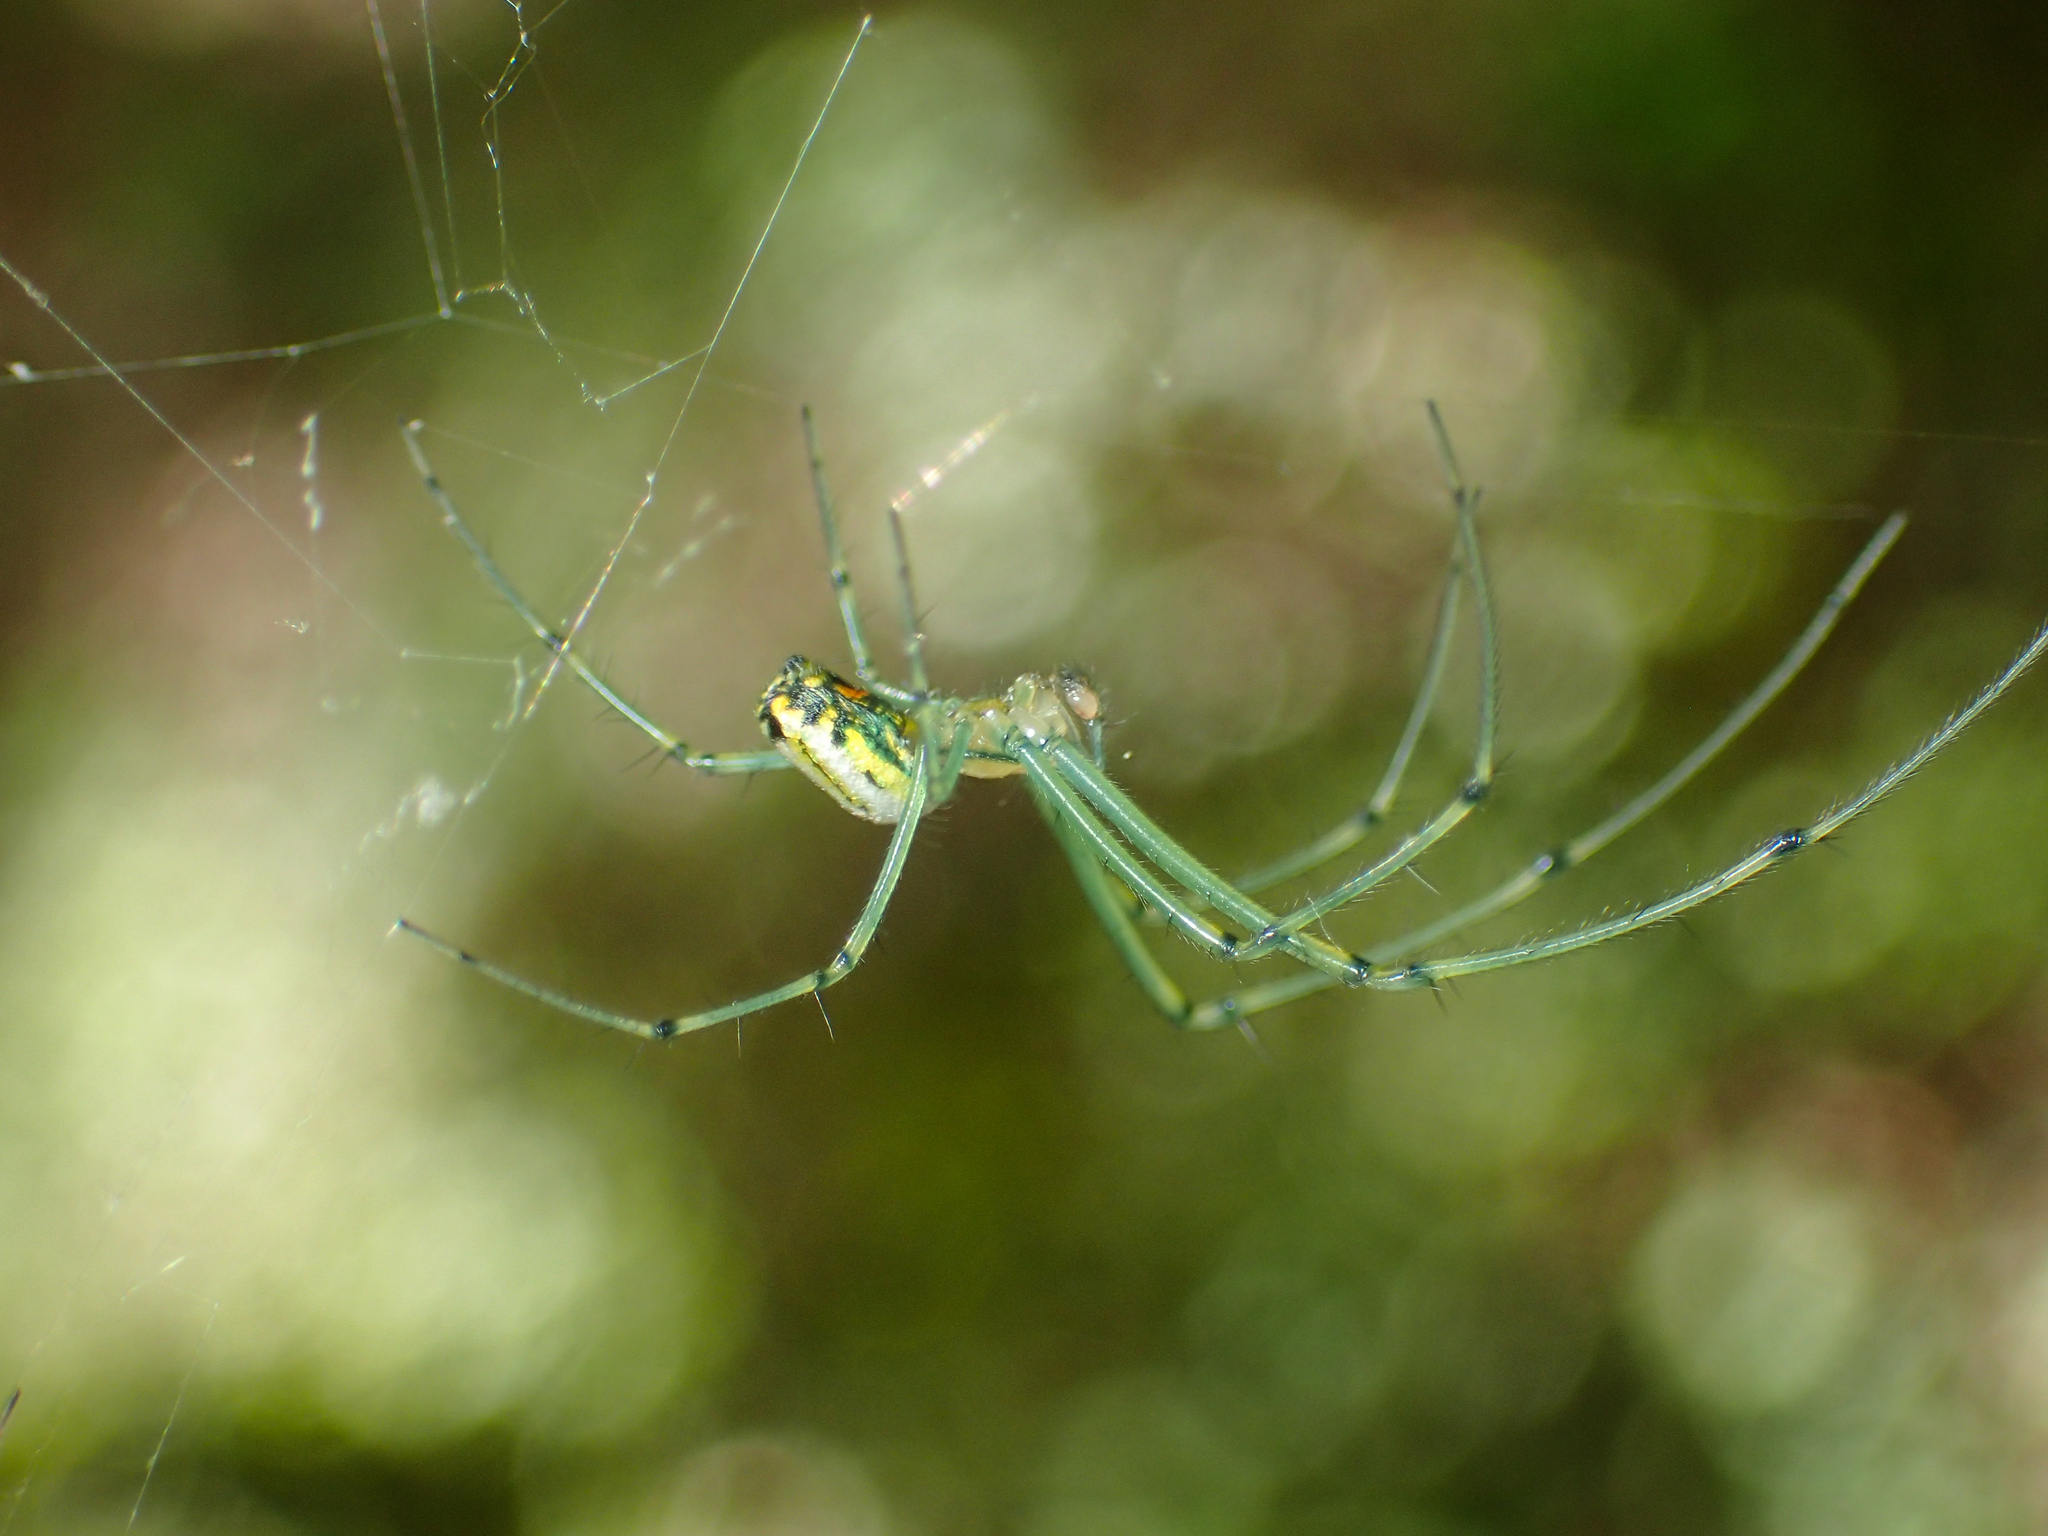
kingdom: Animalia
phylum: Arthropoda
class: Arachnida
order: Araneae
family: Tetragnathidae
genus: Leucauge
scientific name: Leucauge venusta
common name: Longjawed orb weavers
